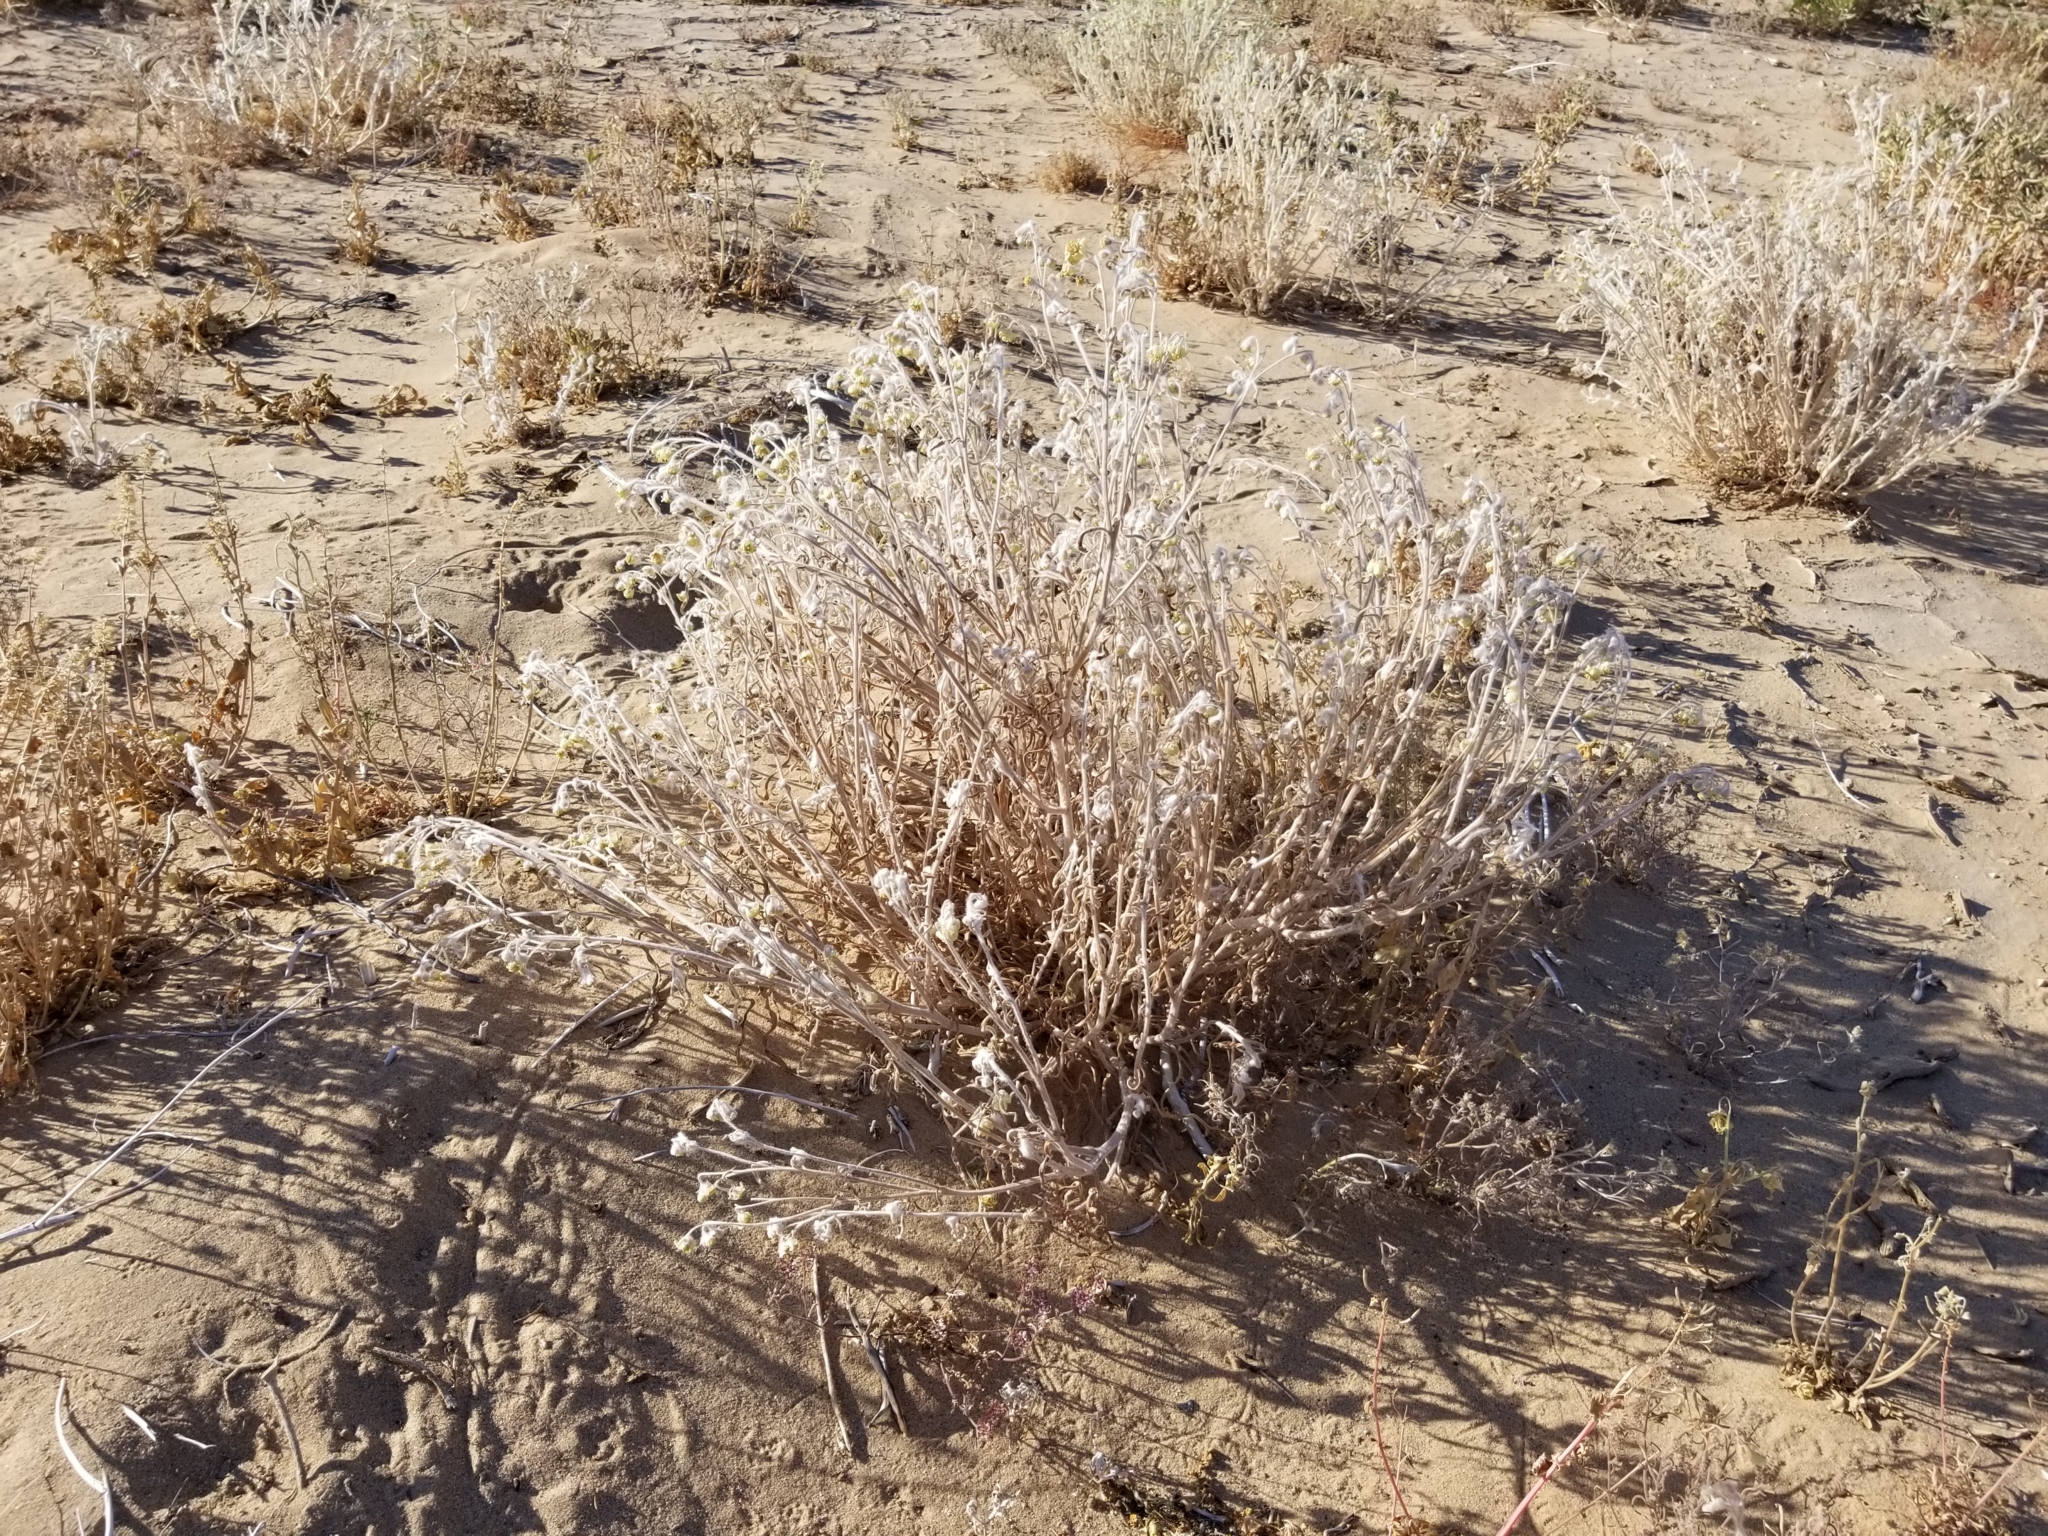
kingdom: Plantae
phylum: Tracheophyta
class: Magnoliopsida
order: Asterales
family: Asteraceae
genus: Baileya
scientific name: Baileya pauciradiata
